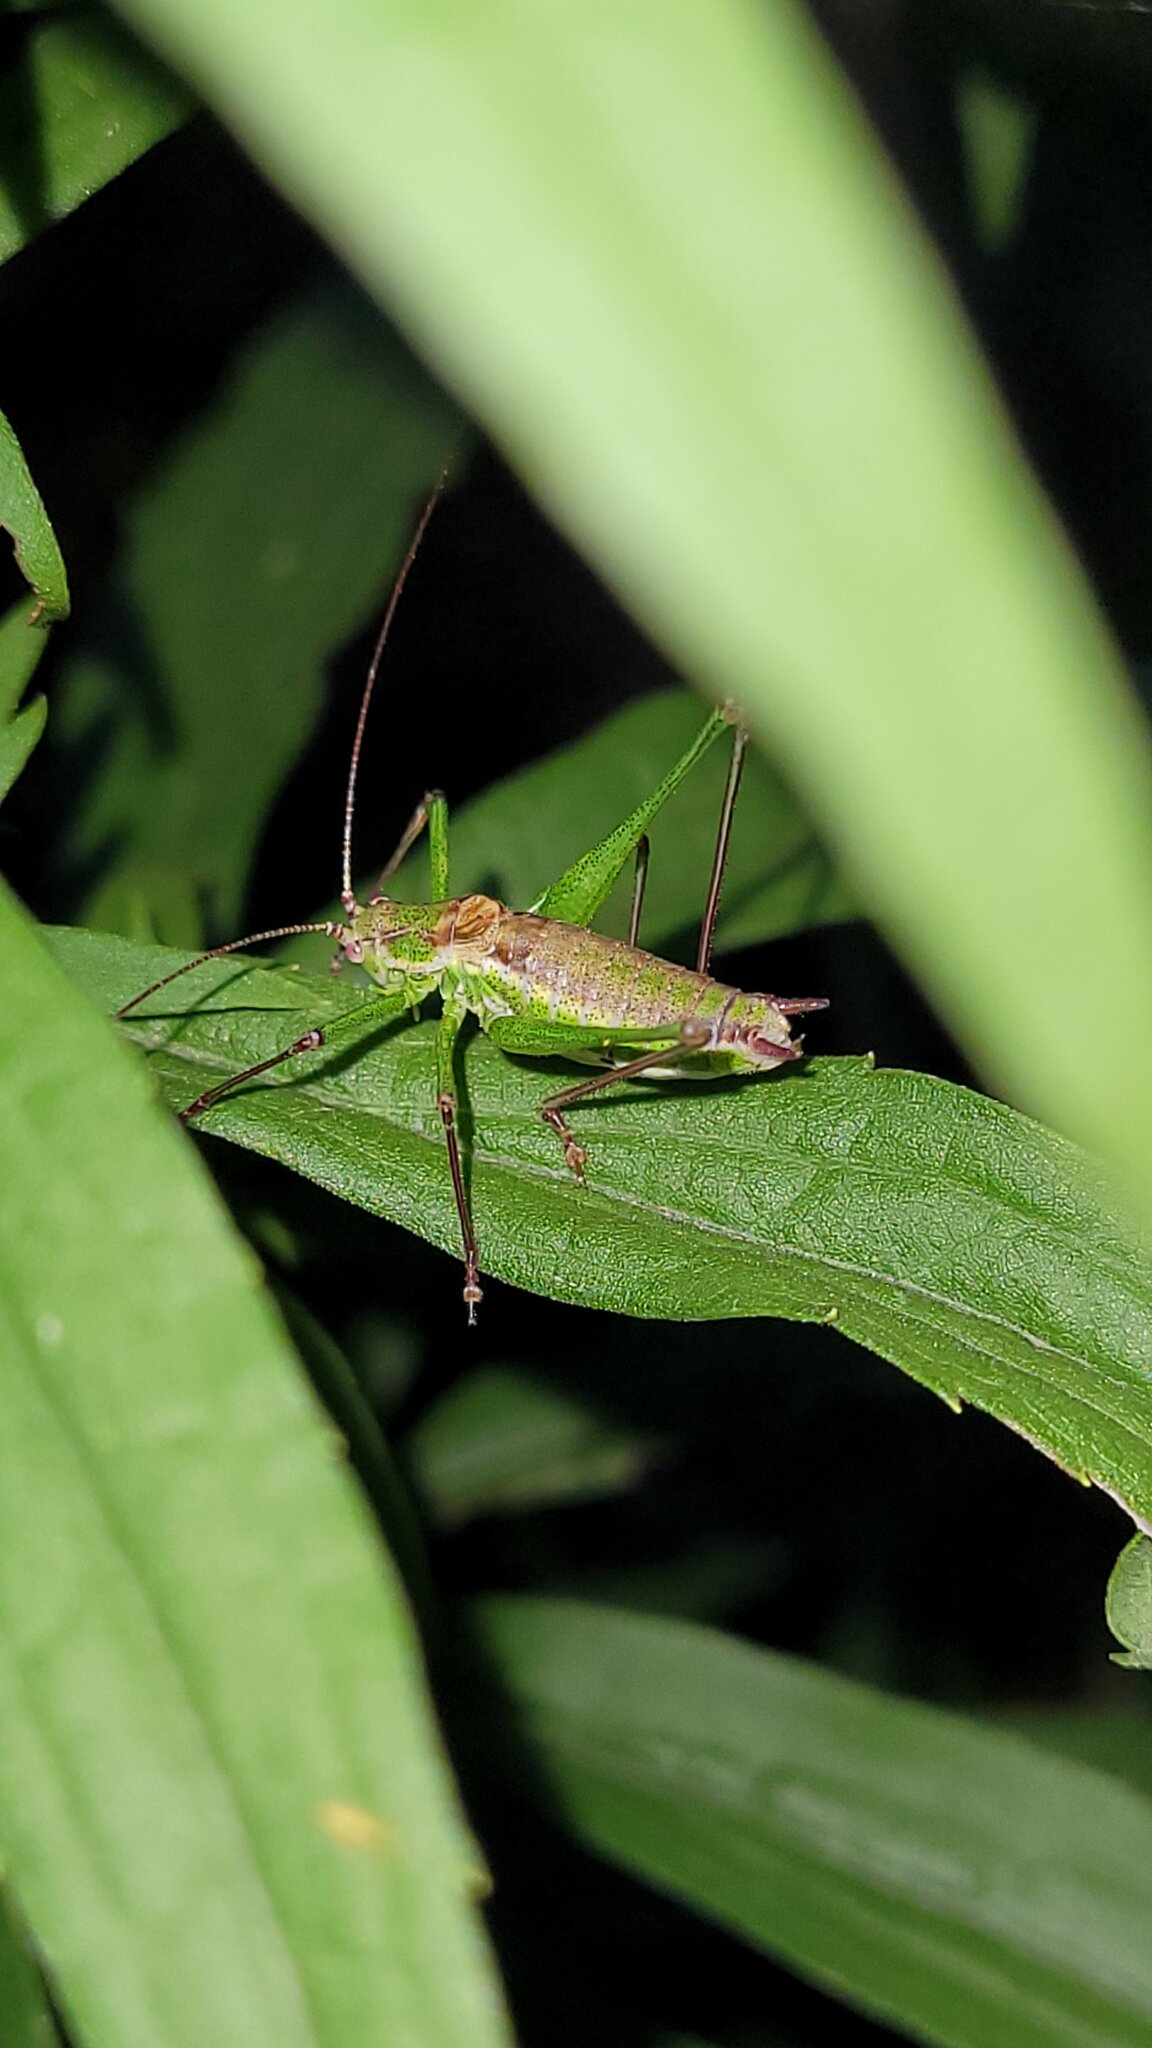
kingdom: Animalia
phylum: Arthropoda
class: Insecta
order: Orthoptera
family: Tettigoniidae
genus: Leptophyes
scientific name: Leptophyes albovittata
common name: Striped bush-cricket
